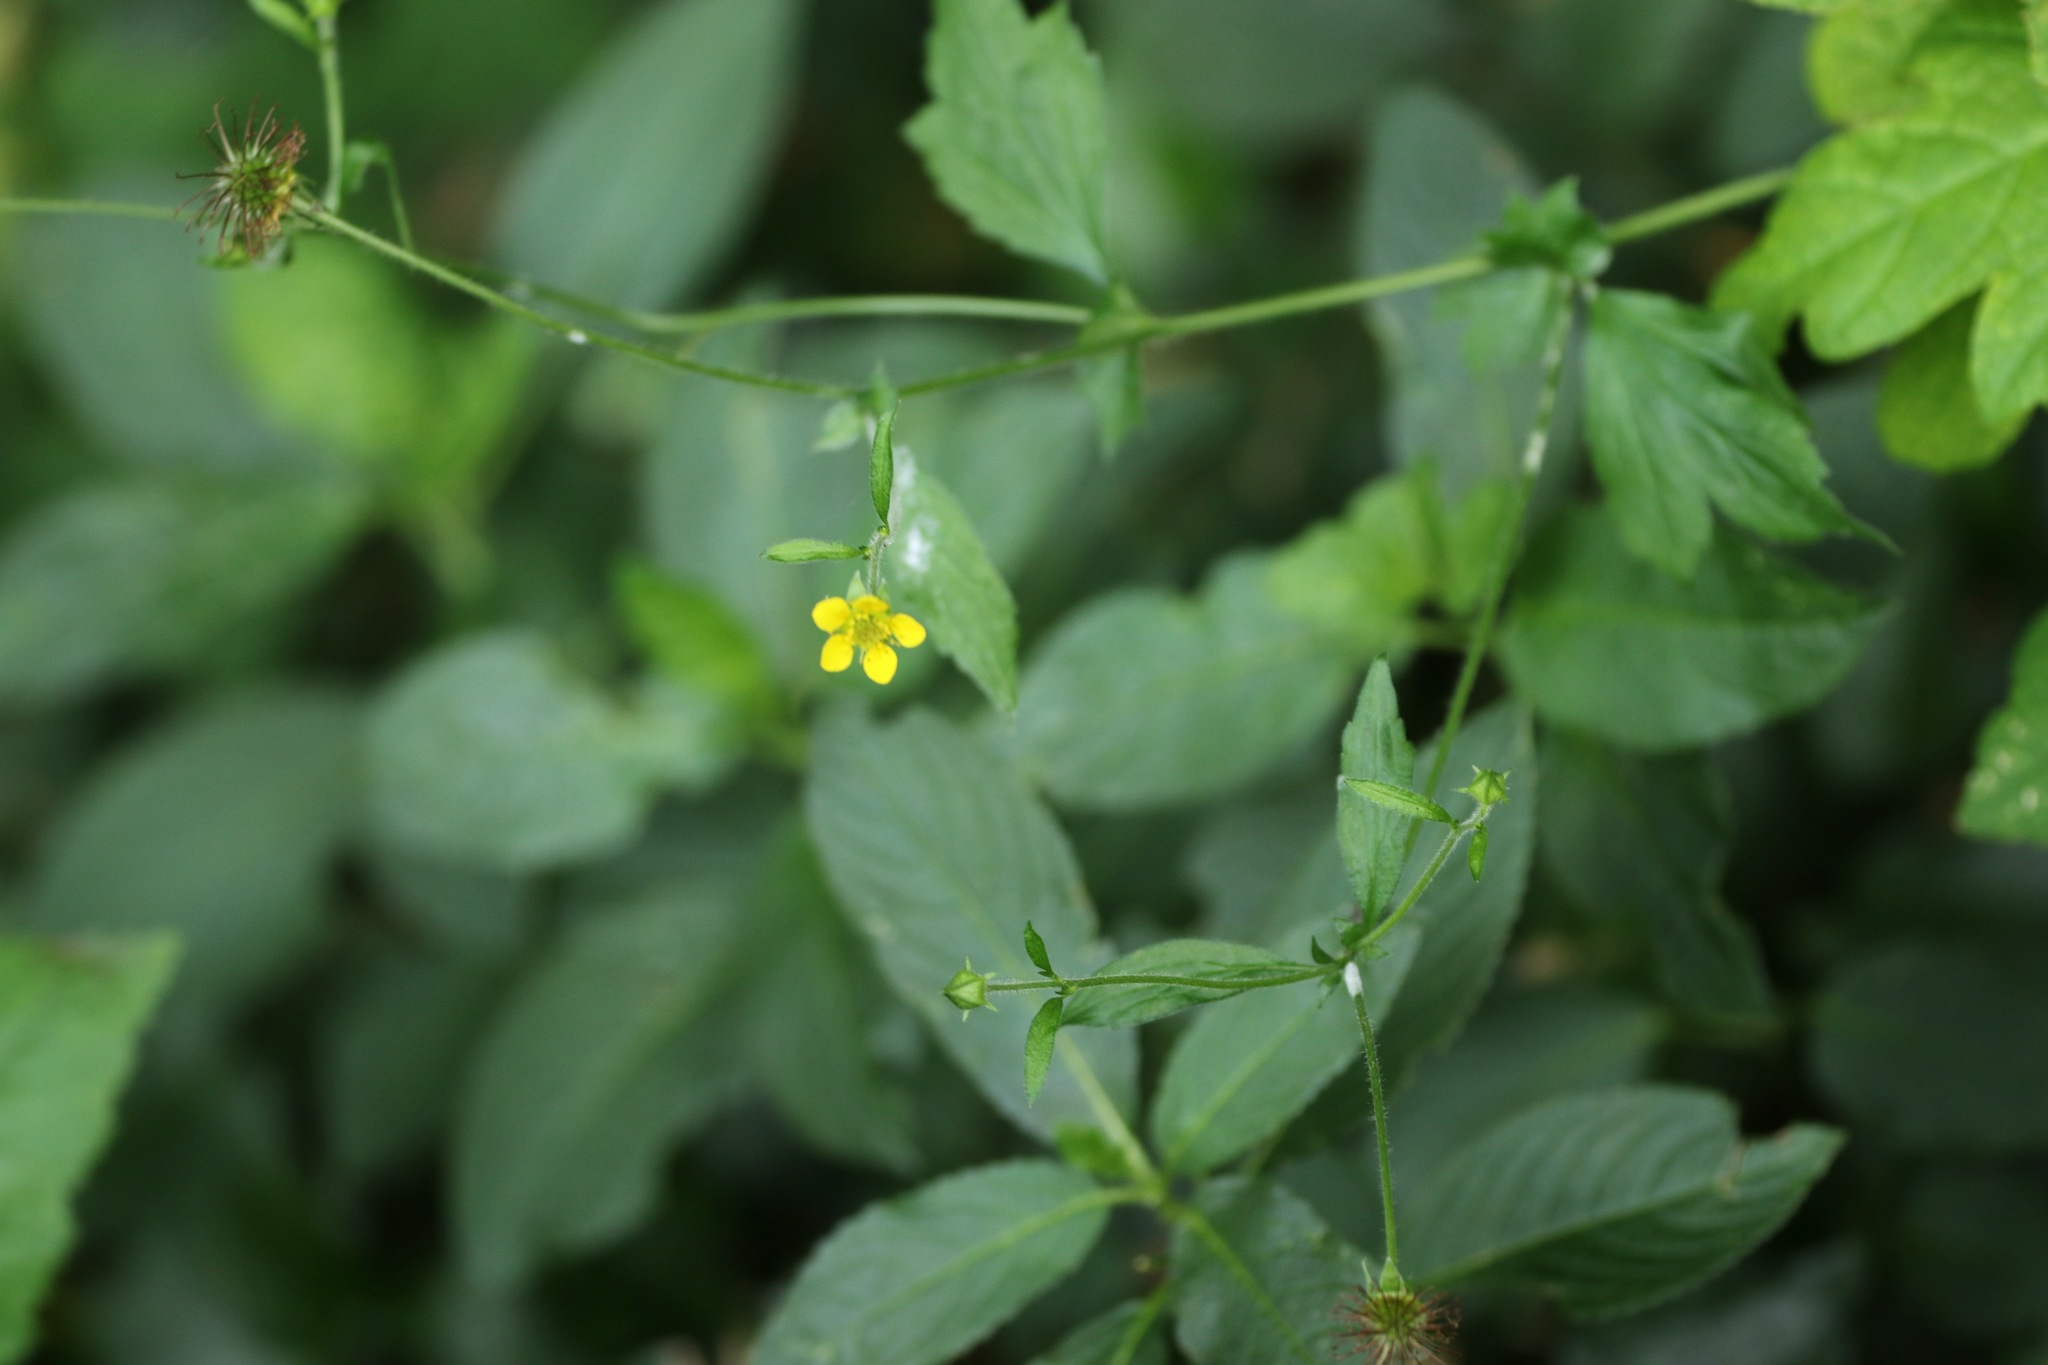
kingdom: Plantae
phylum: Tracheophyta
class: Magnoliopsida
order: Rosales
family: Rosaceae
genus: Geum
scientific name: Geum urbanum
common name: Wood avens
